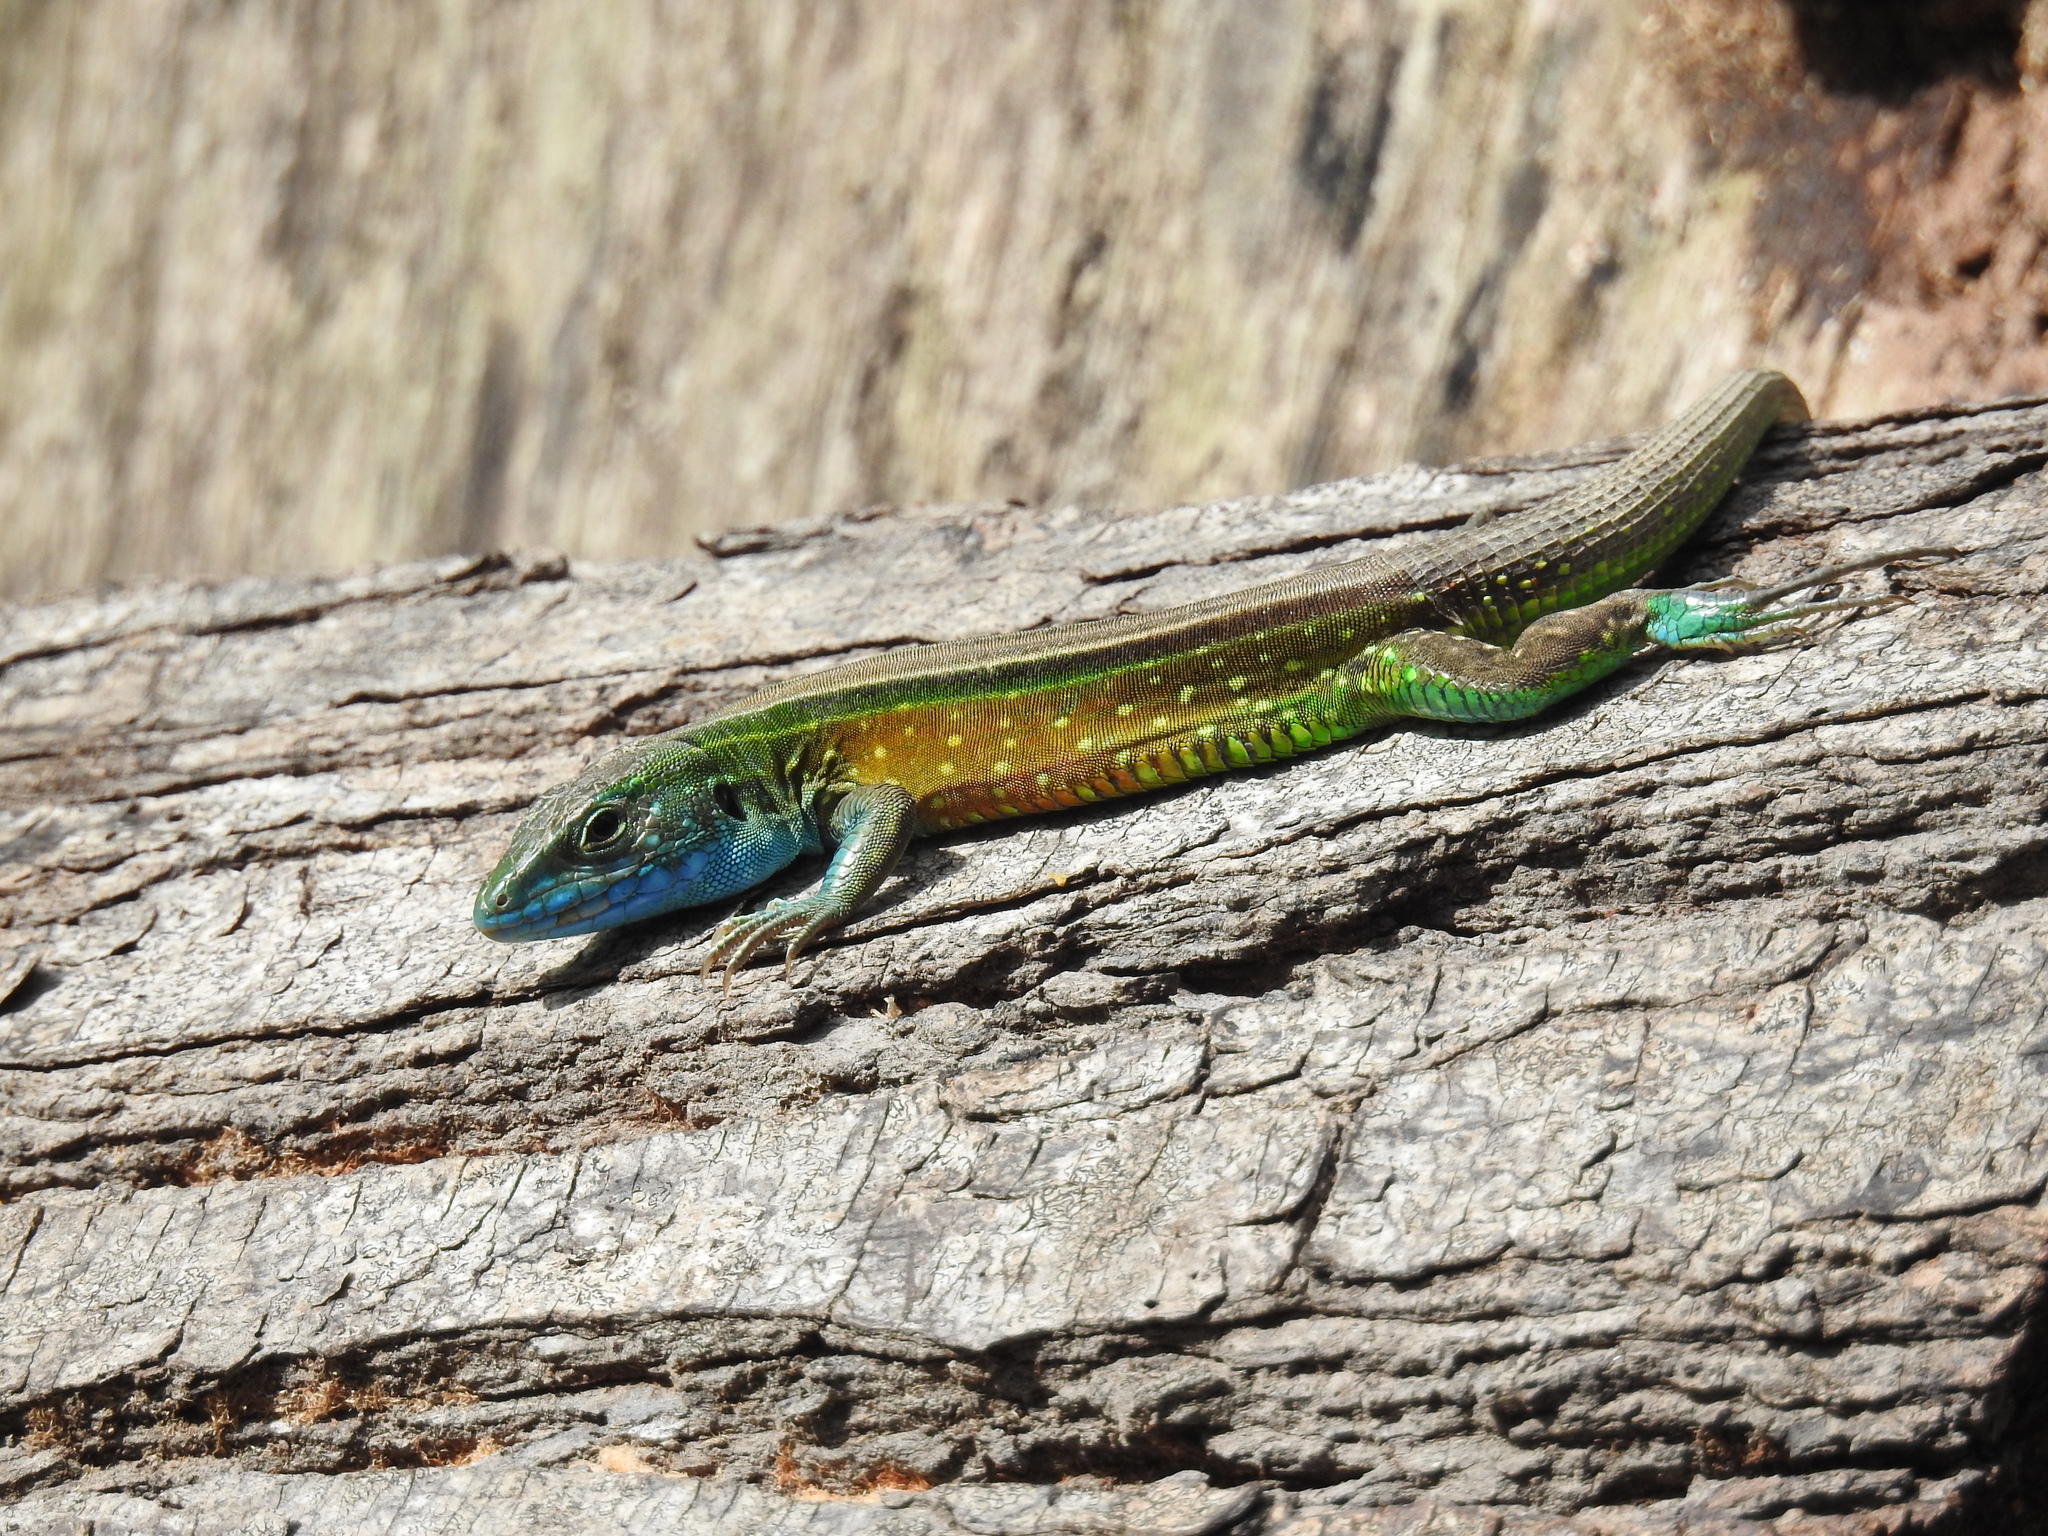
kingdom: Animalia
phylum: Chordata
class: Squamata
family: Teiidae
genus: Cnemidophorus
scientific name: Cnemidophorus gaigei
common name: Gaige’s rainbow lizard
